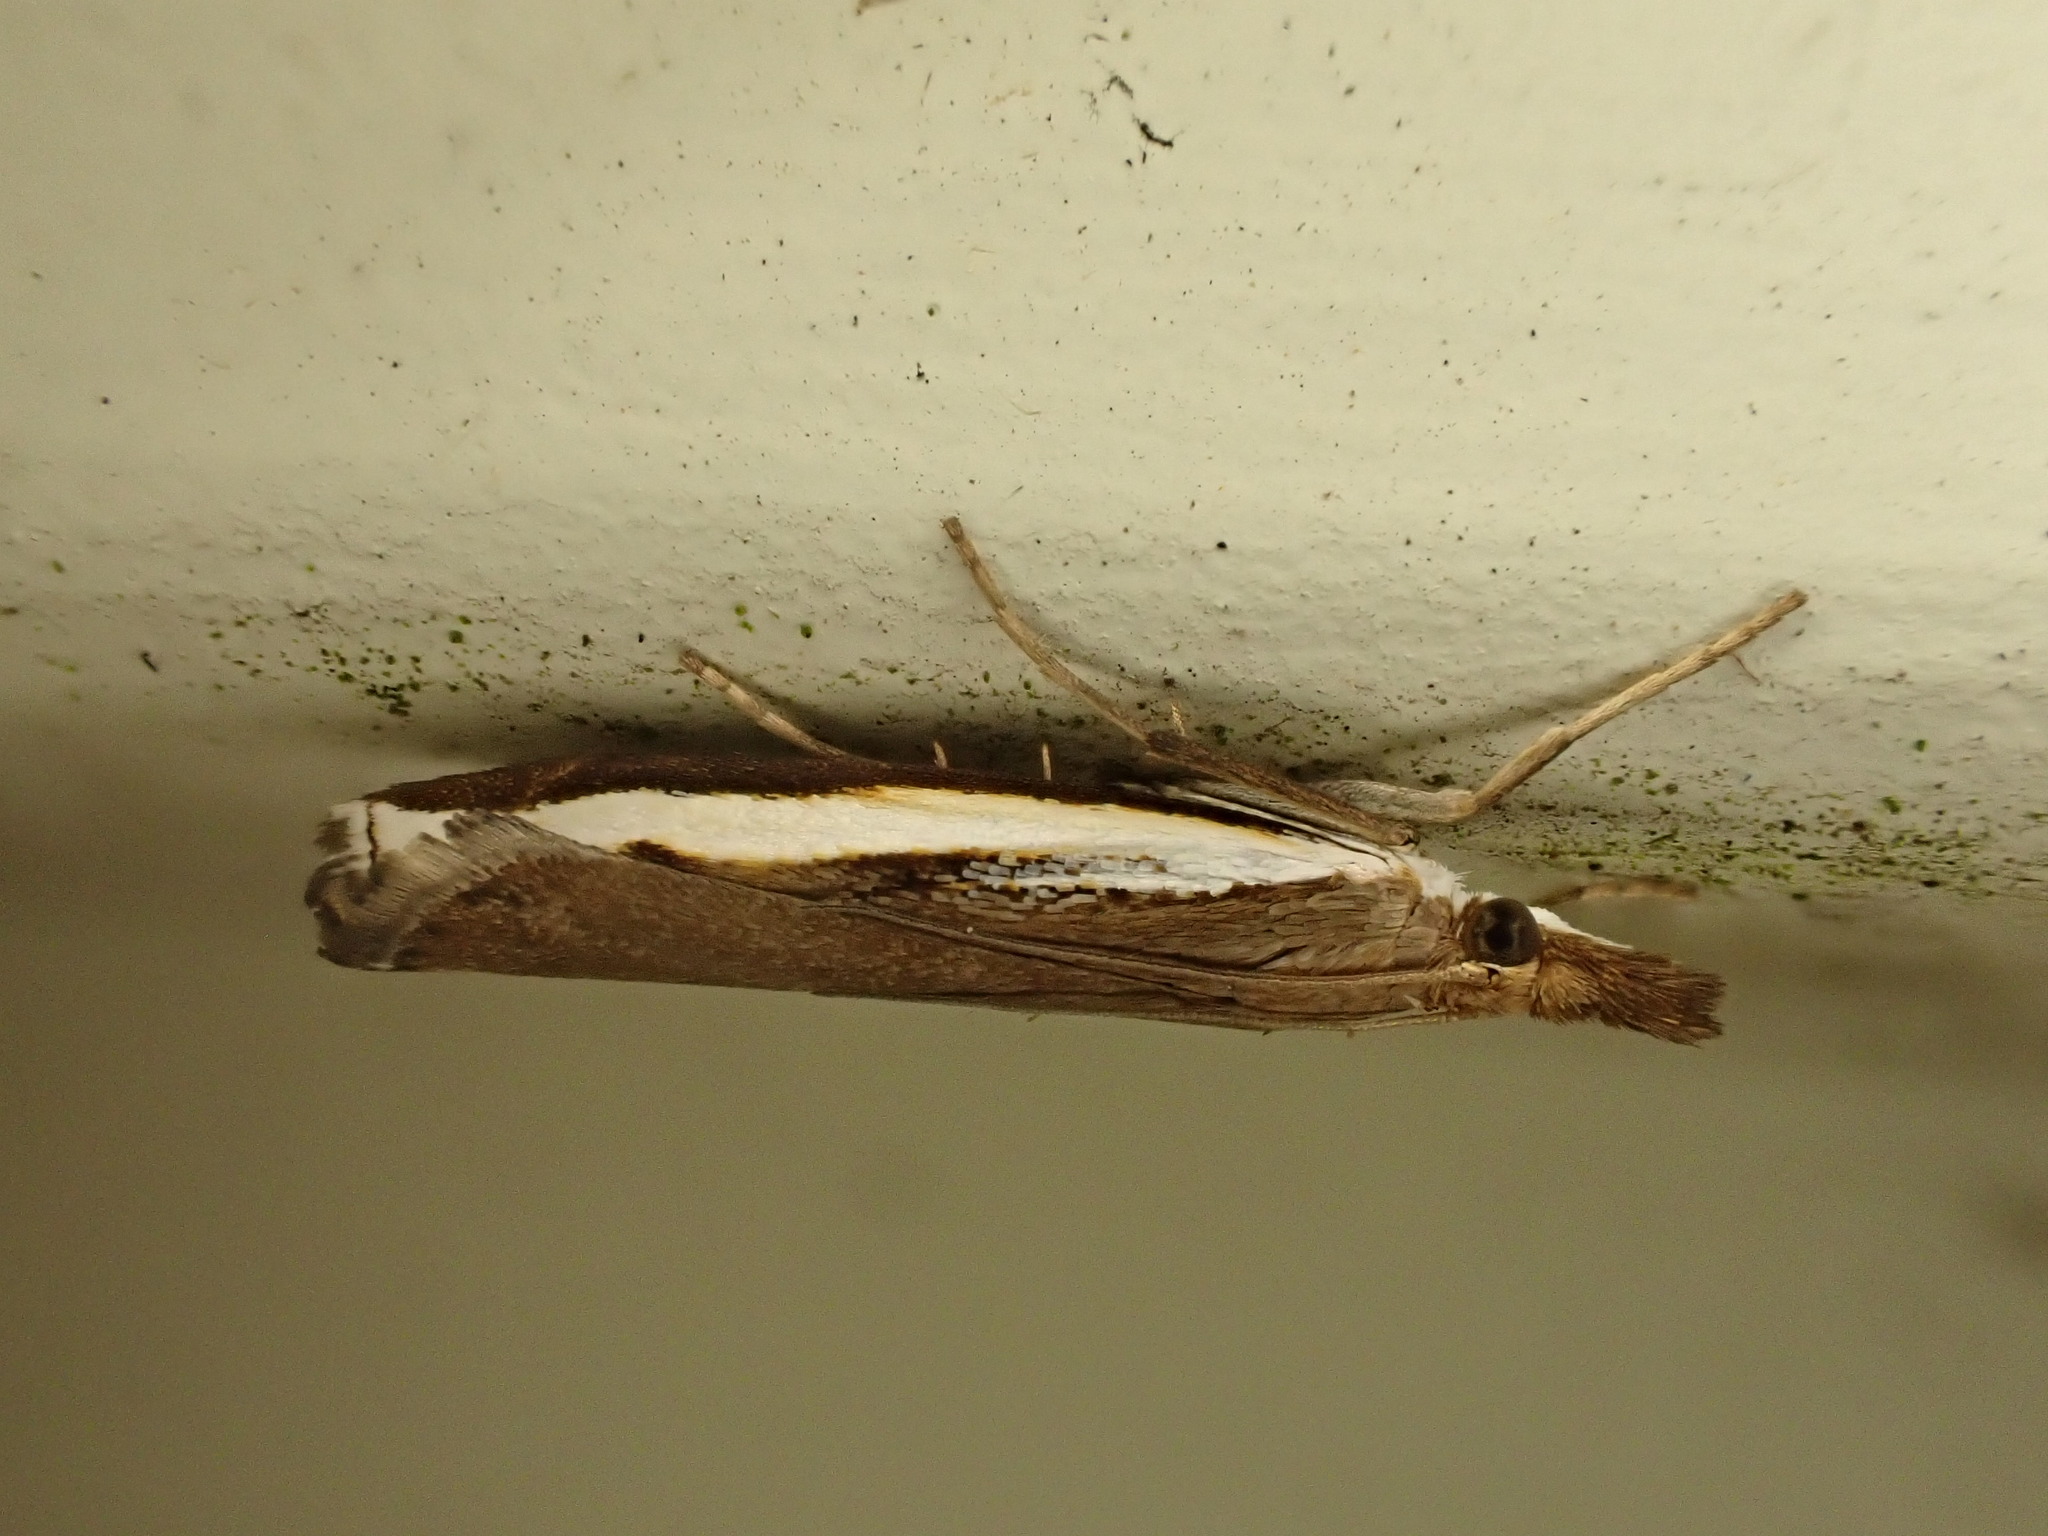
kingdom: Animalia
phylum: Arthropoda
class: Insecta
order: Lepidoptera
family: Crambidae
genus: Orocrambus
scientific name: Orocrambus flexuosellus
